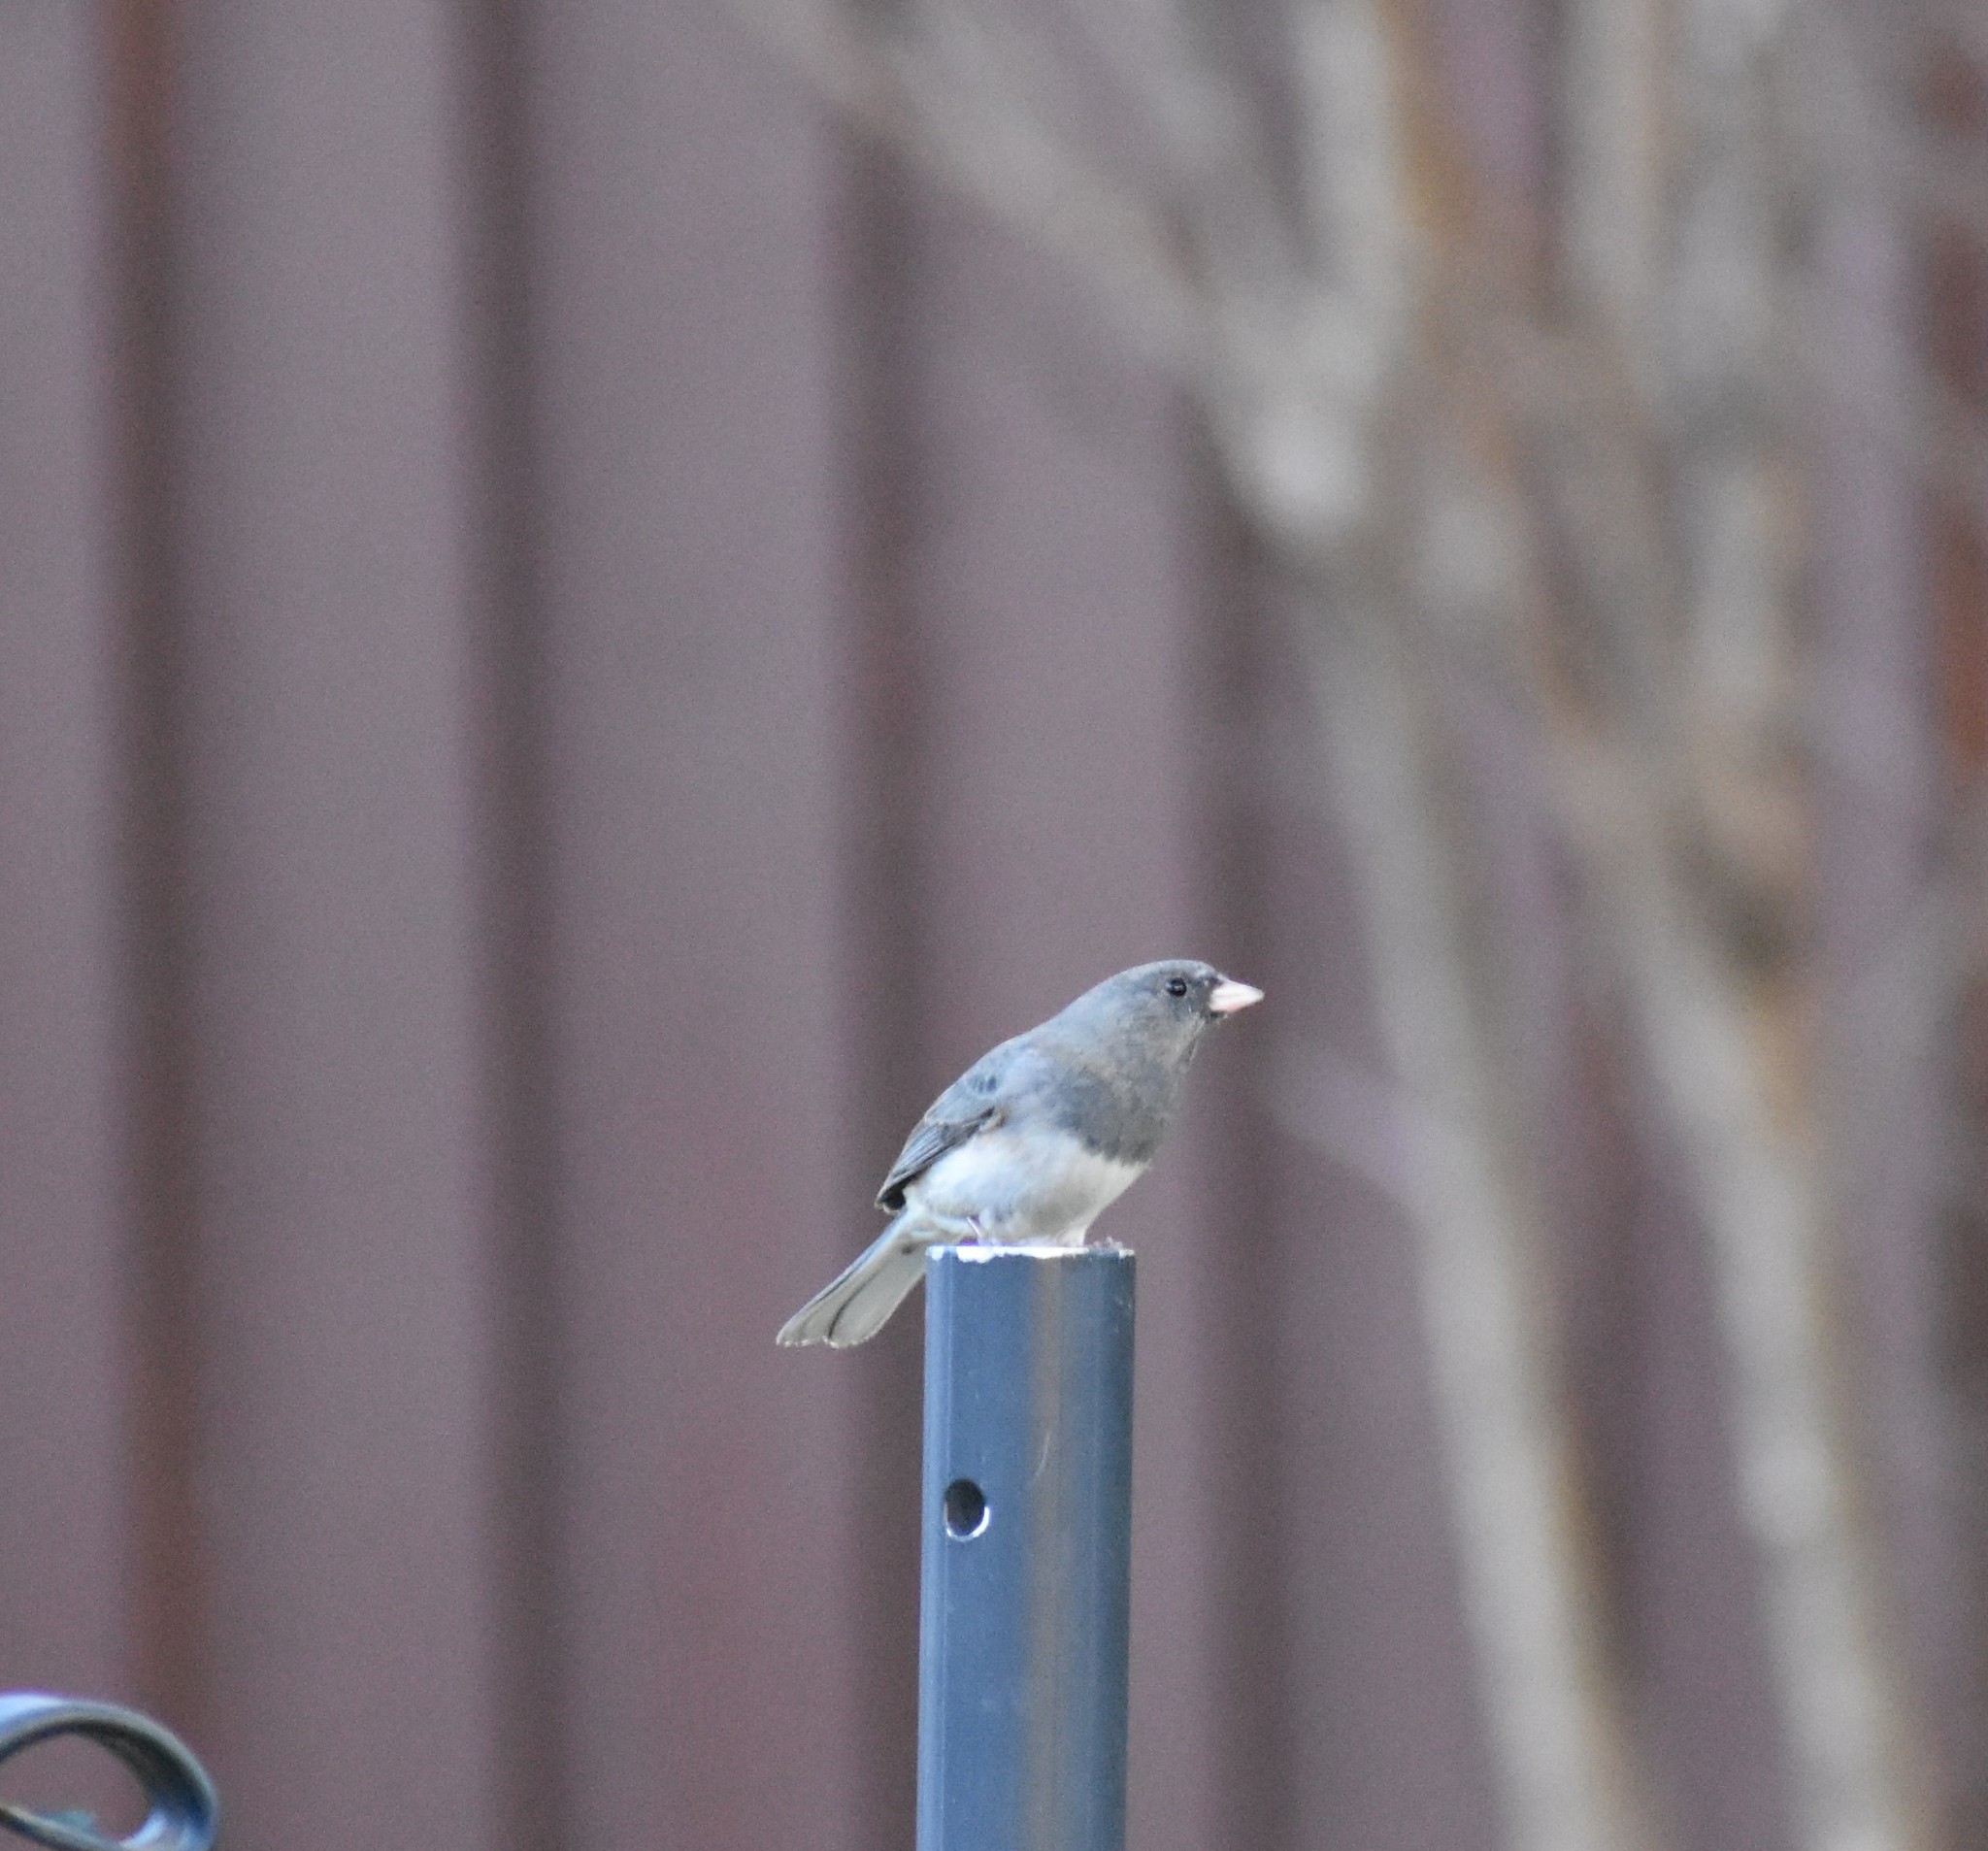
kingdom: Animalia
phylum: Chordata
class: Aves
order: Passeriformes
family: Passerellidae
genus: Junco
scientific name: Junco hyemalis
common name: Dark-eyed junco
